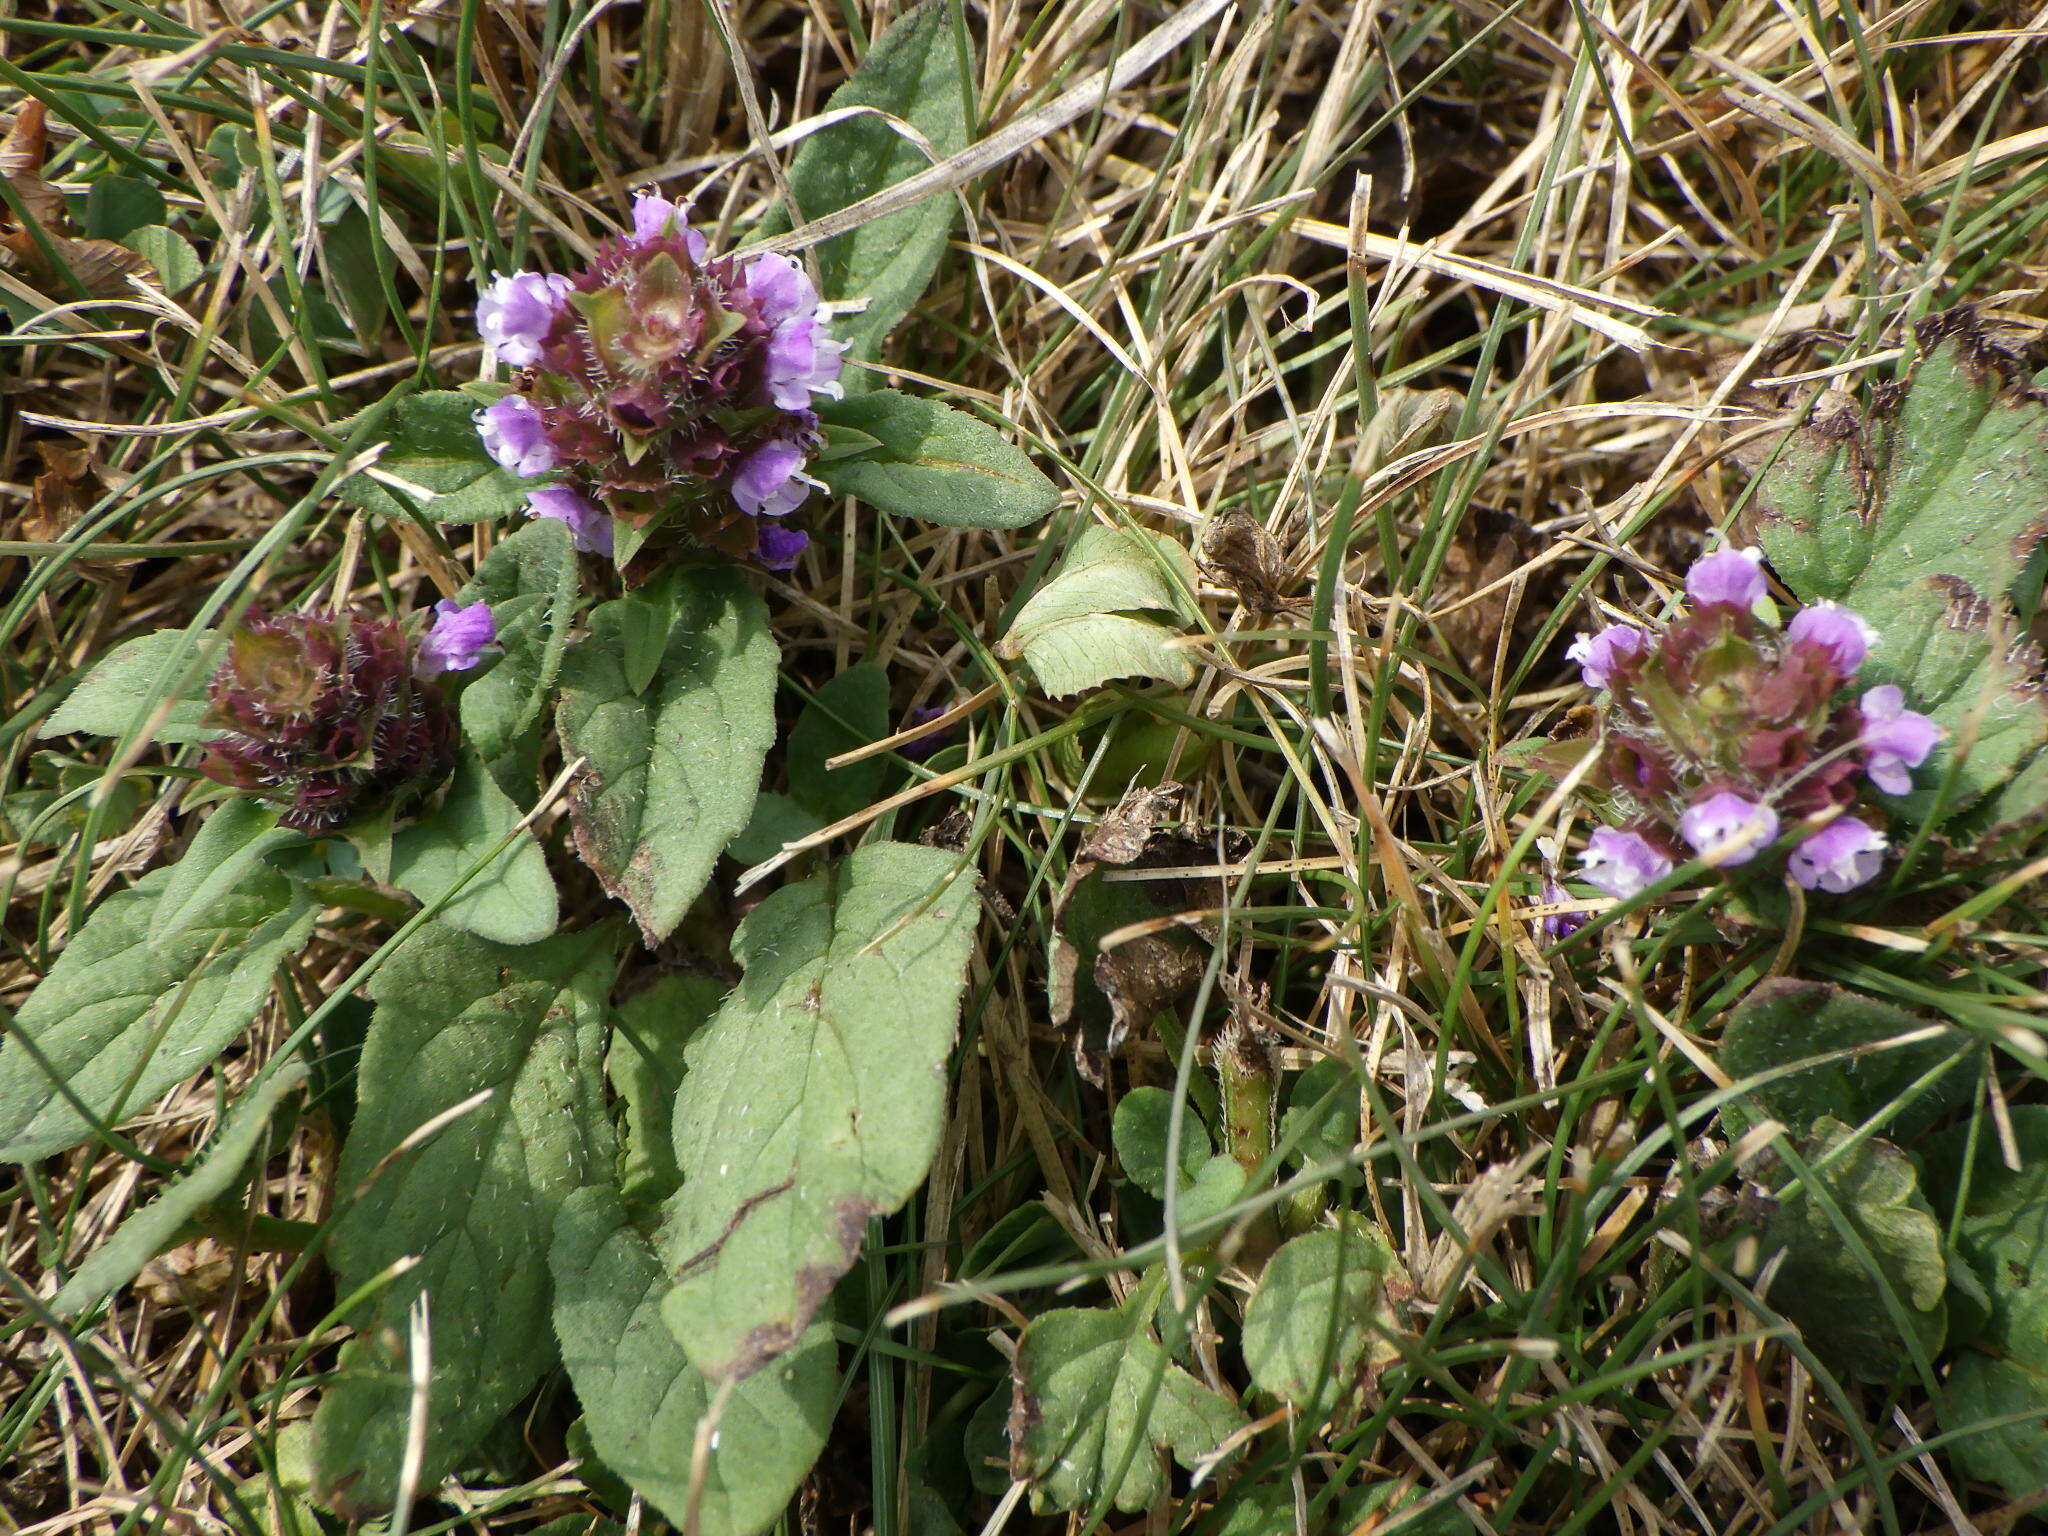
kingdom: Plantae
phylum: Tracheophyta
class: Magnoliopsida
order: Lamiales
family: Lamiaceae
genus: Prunella
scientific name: Prunella vulgaris
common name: Heal-all
